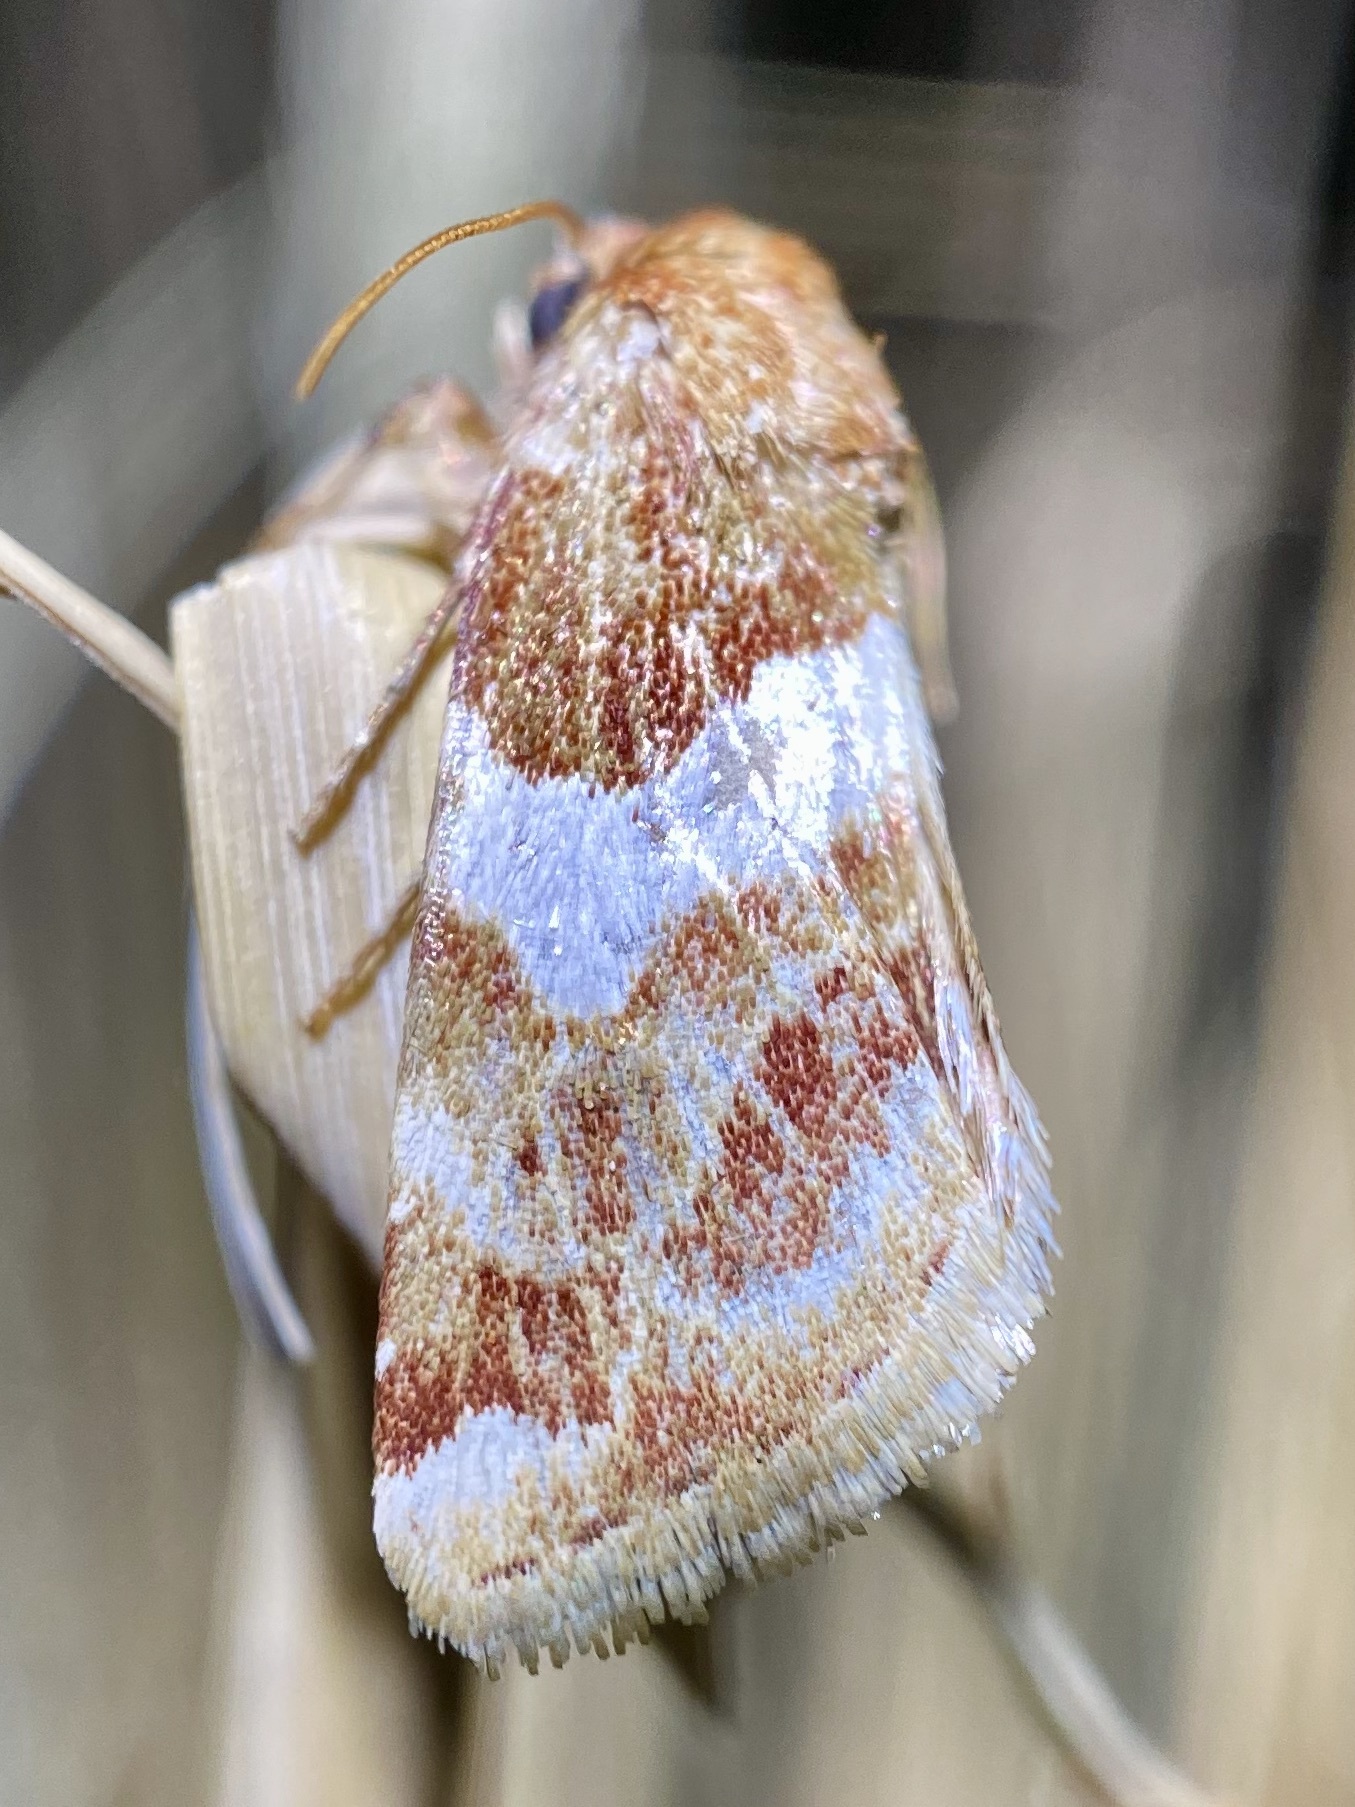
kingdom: Animalia
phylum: Arthropoda
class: Insecta
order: Lepidoptera
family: Noctuidae
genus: Schinia
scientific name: Schinia argentifascia
